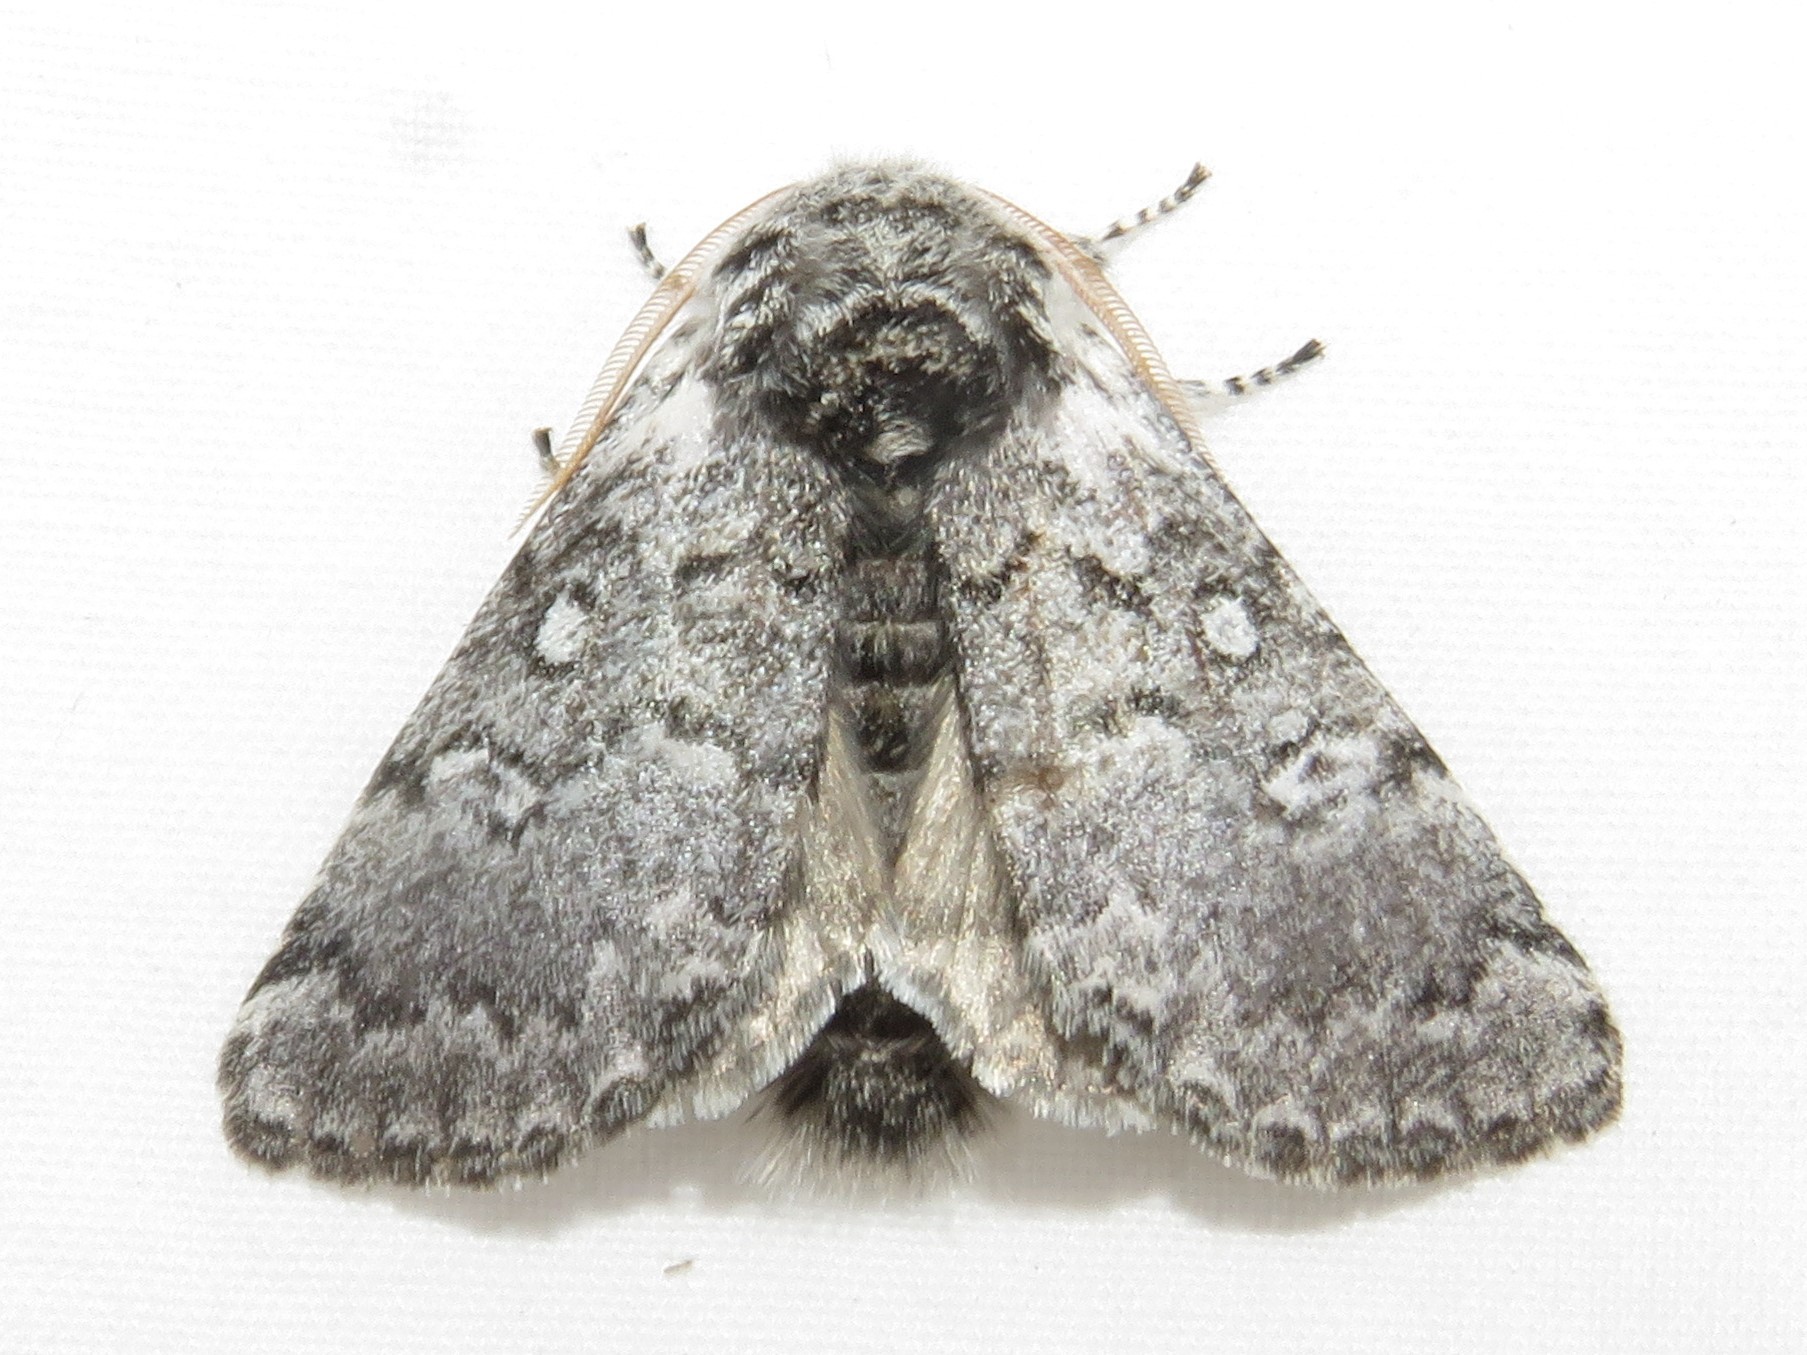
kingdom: Animalia
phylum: Arthropoda
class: Insecta
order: Lepidoptera
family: Noctuidae
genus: Colocasia
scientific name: Colocasia propinquilinea
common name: Close-banded demas
